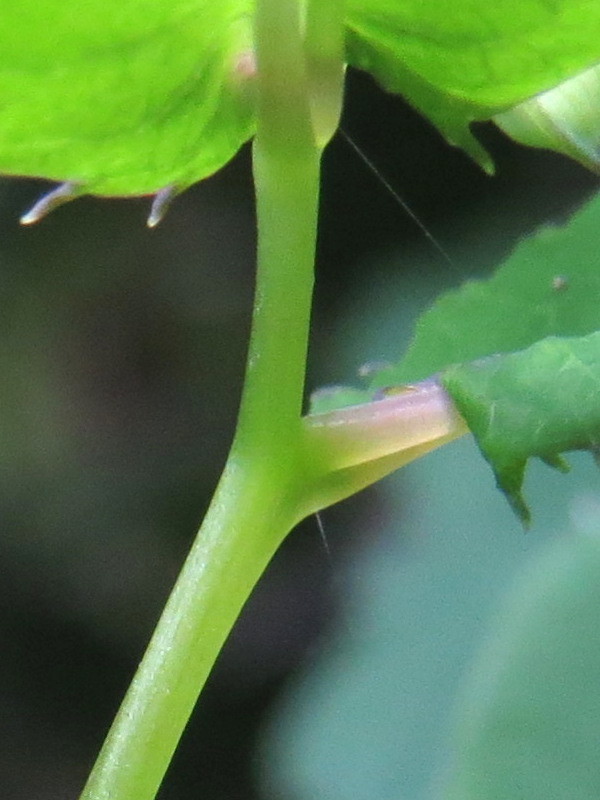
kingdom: Plantae
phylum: Tracheophyta
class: Magnoliopsida
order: Ericales
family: Balsaminaceae
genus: Impatiens
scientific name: Impatiens pallida
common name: Pale snapweed
